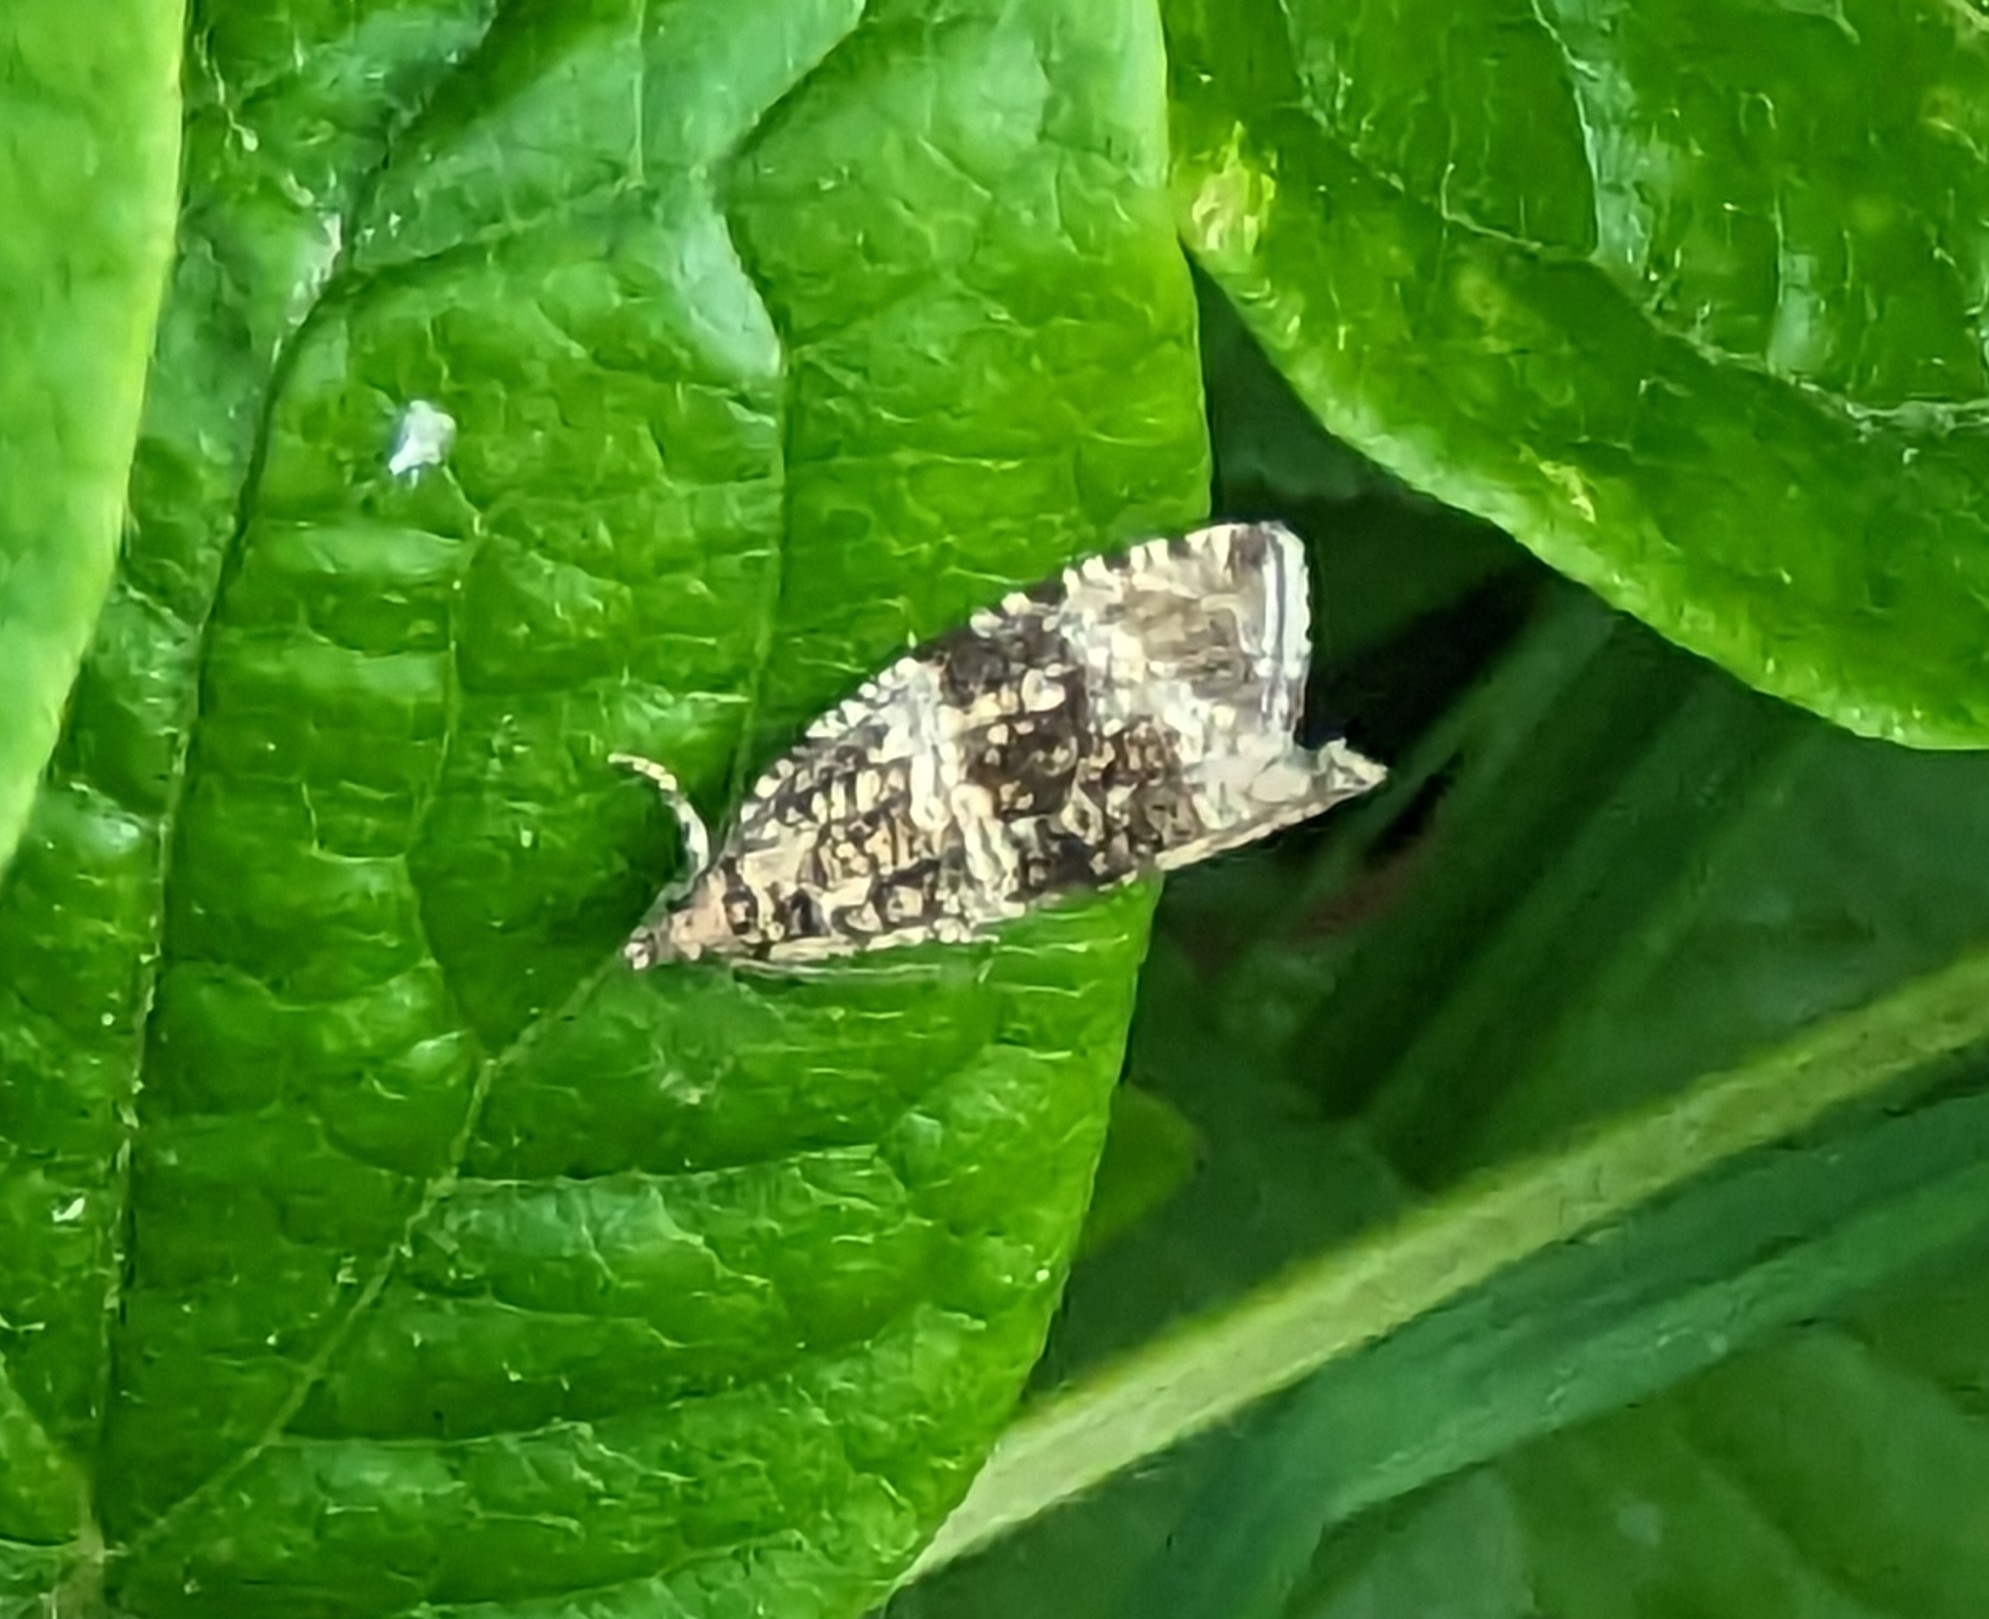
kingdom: Animalia
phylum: Arthropoda
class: Insecta
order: Lepidoptera
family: Tortricidae
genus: Syricoris
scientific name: Syricoris lacunana
